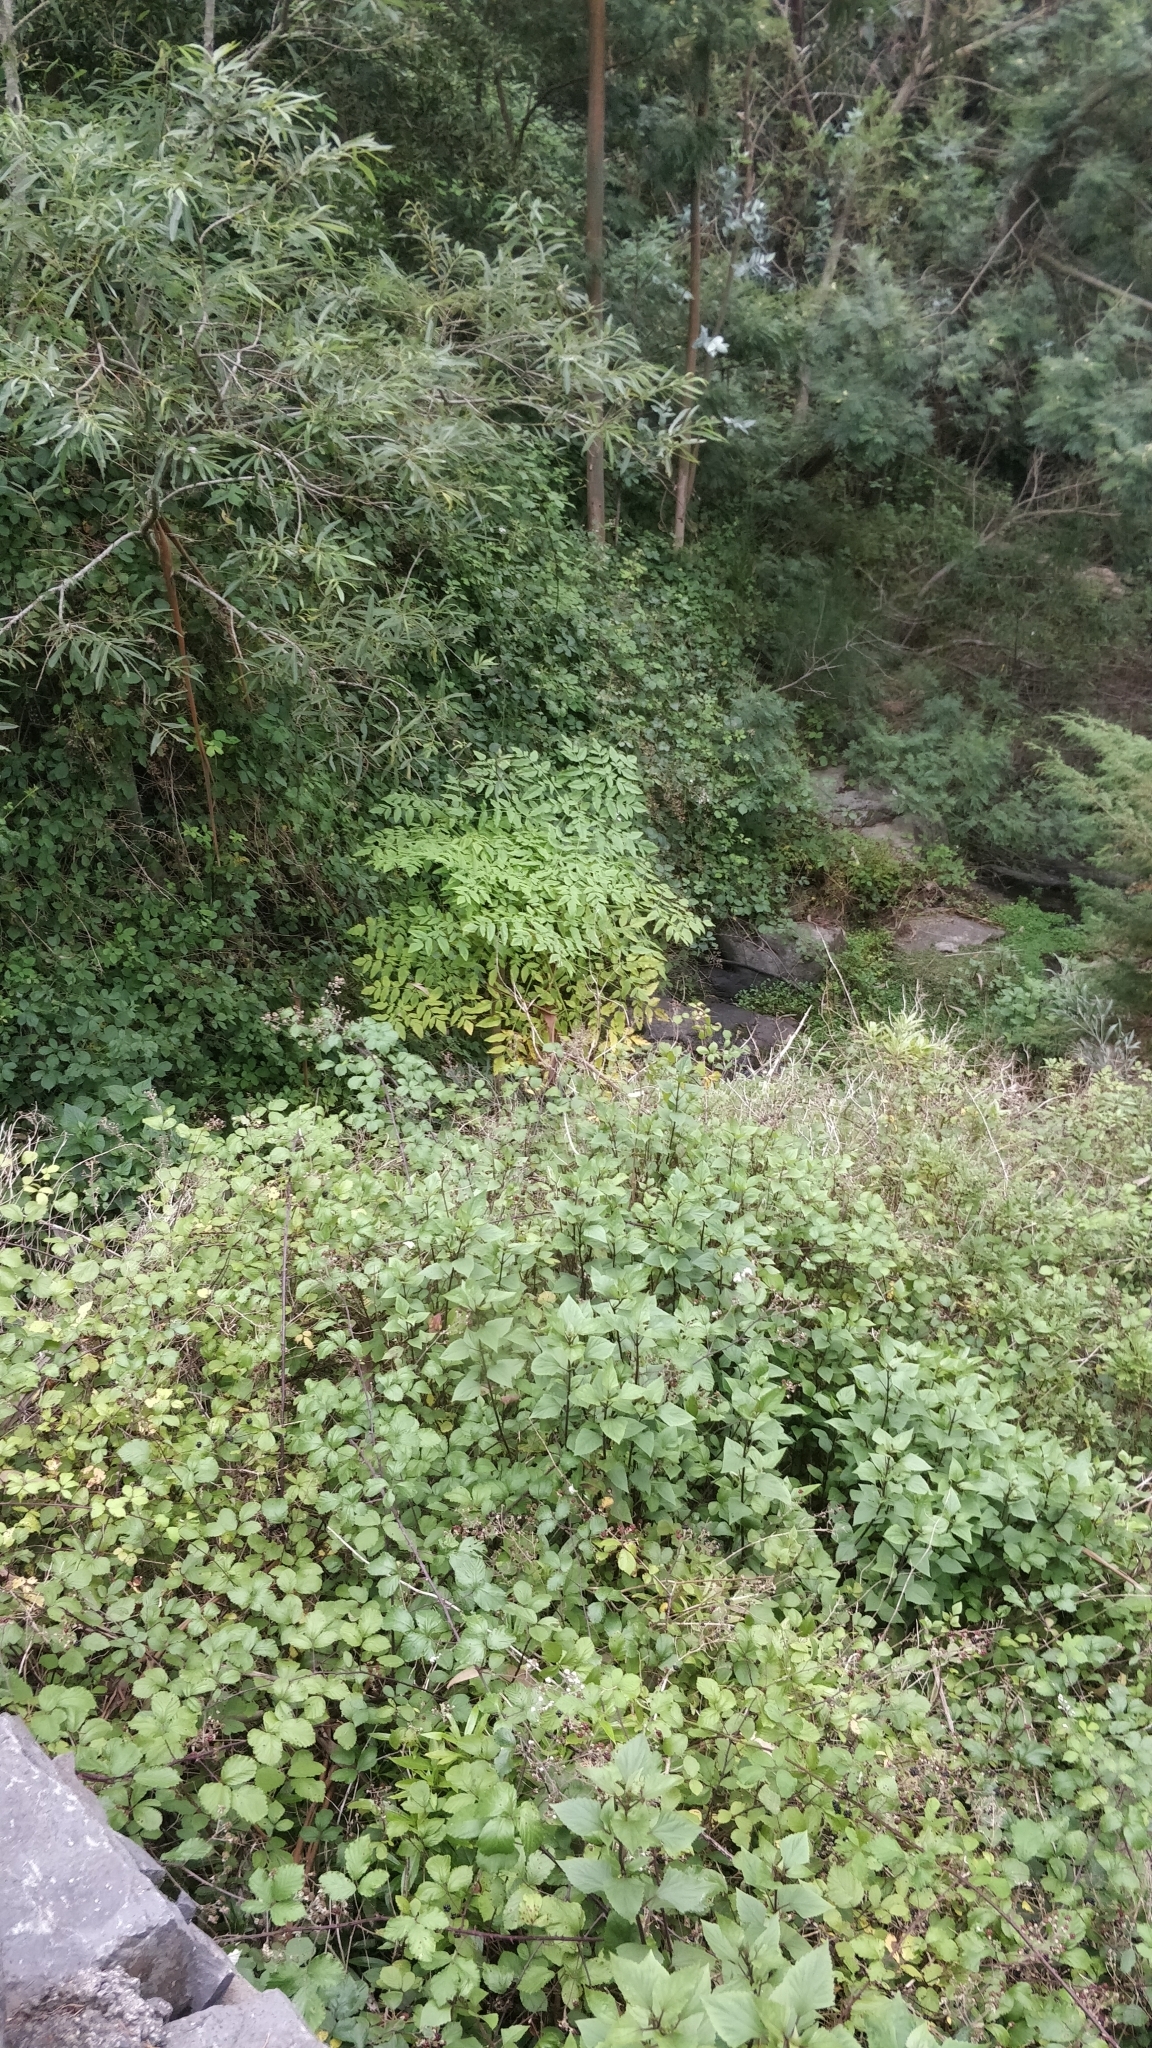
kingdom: Plantae
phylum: Tracheophyta
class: Magnoliopsida
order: Apiales
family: Apiaceae
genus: Daucus
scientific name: Daucus decipiens
